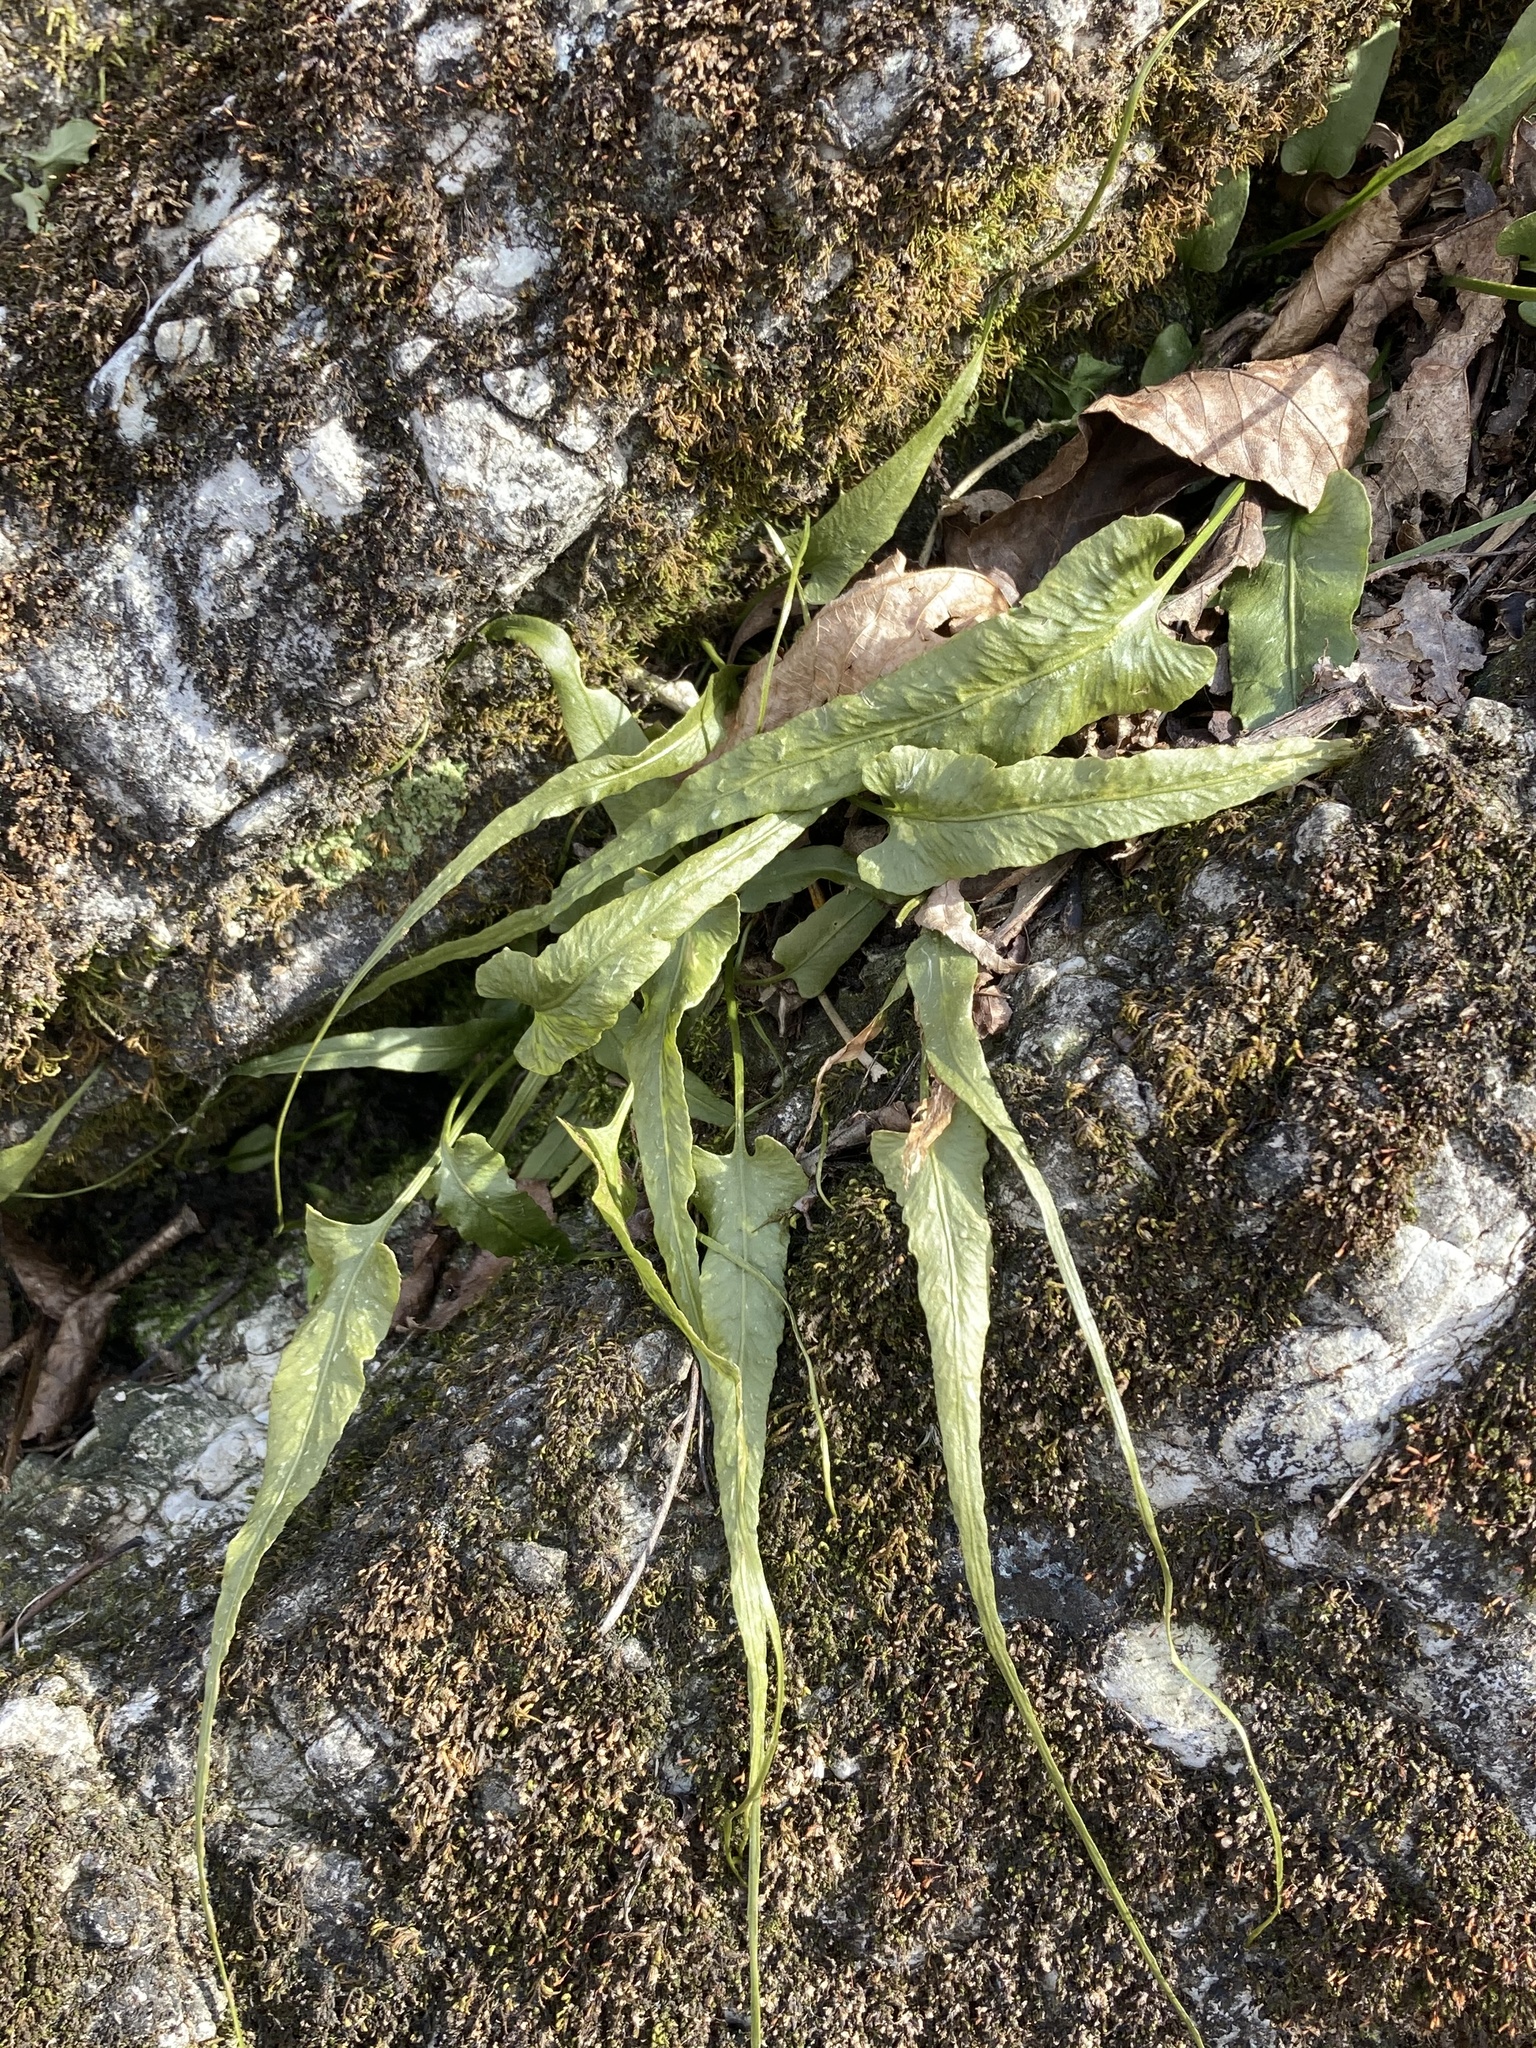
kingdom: Plantae
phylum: Tracheophyta
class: Polypodiopsida
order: Polypodiales
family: Aspleniaceae
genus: Asplenium
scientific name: Asplenium rhizophyllum
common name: Walking fern
